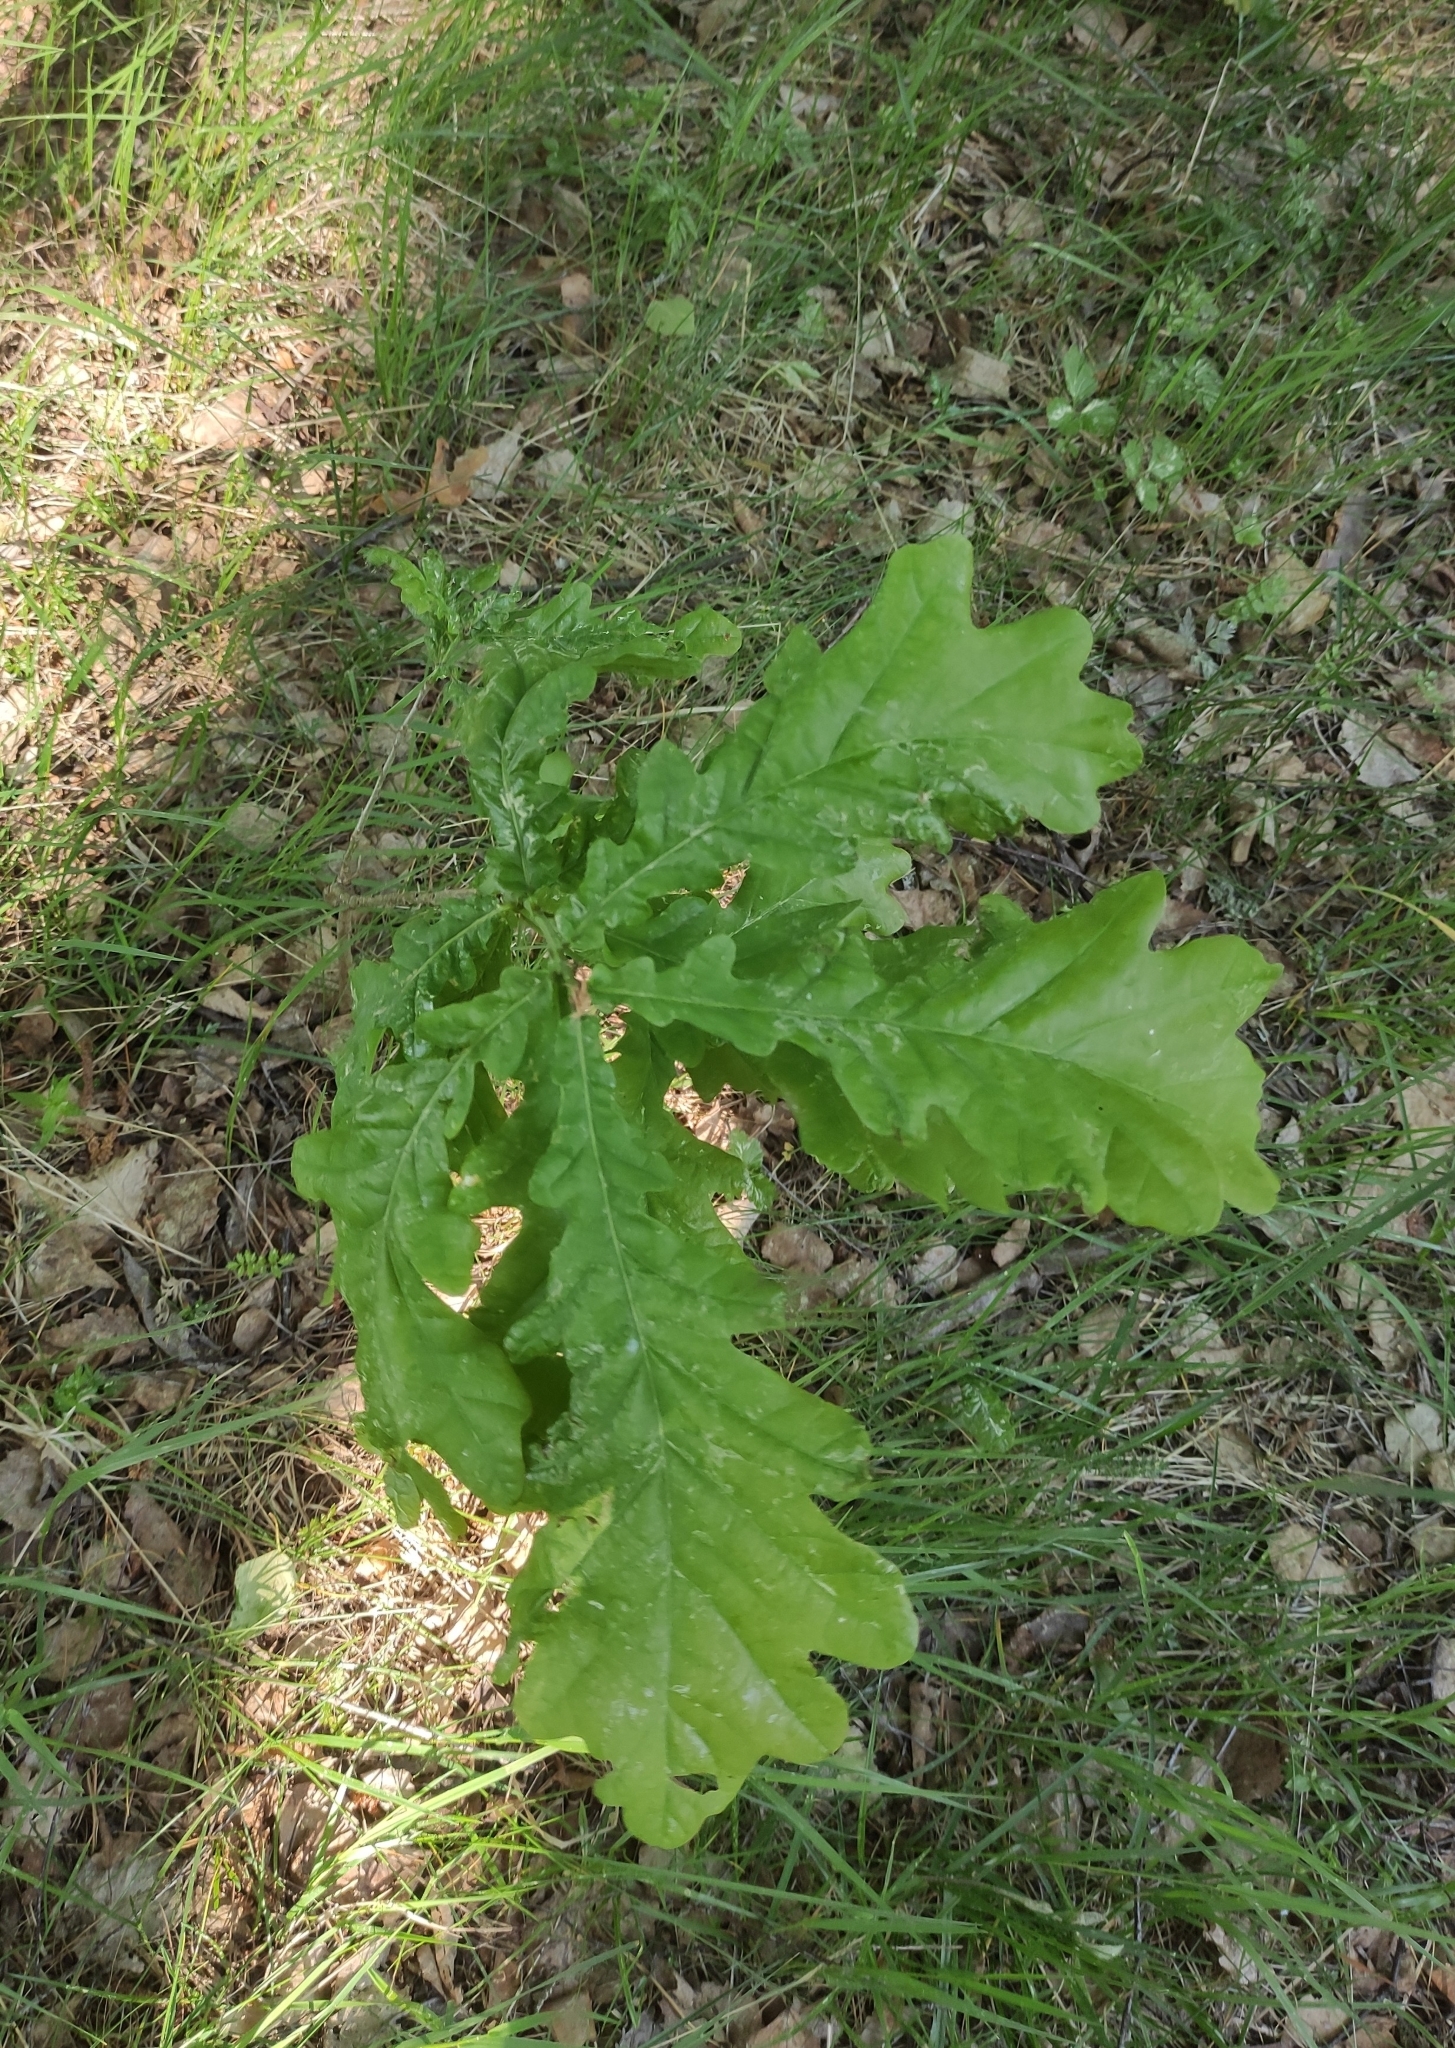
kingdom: Plantae
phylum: Tracheophyta
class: Magnoliopsida
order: Fagales
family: Fagaceae
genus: Quercus
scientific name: Quercus robur
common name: Pedunculate oak
